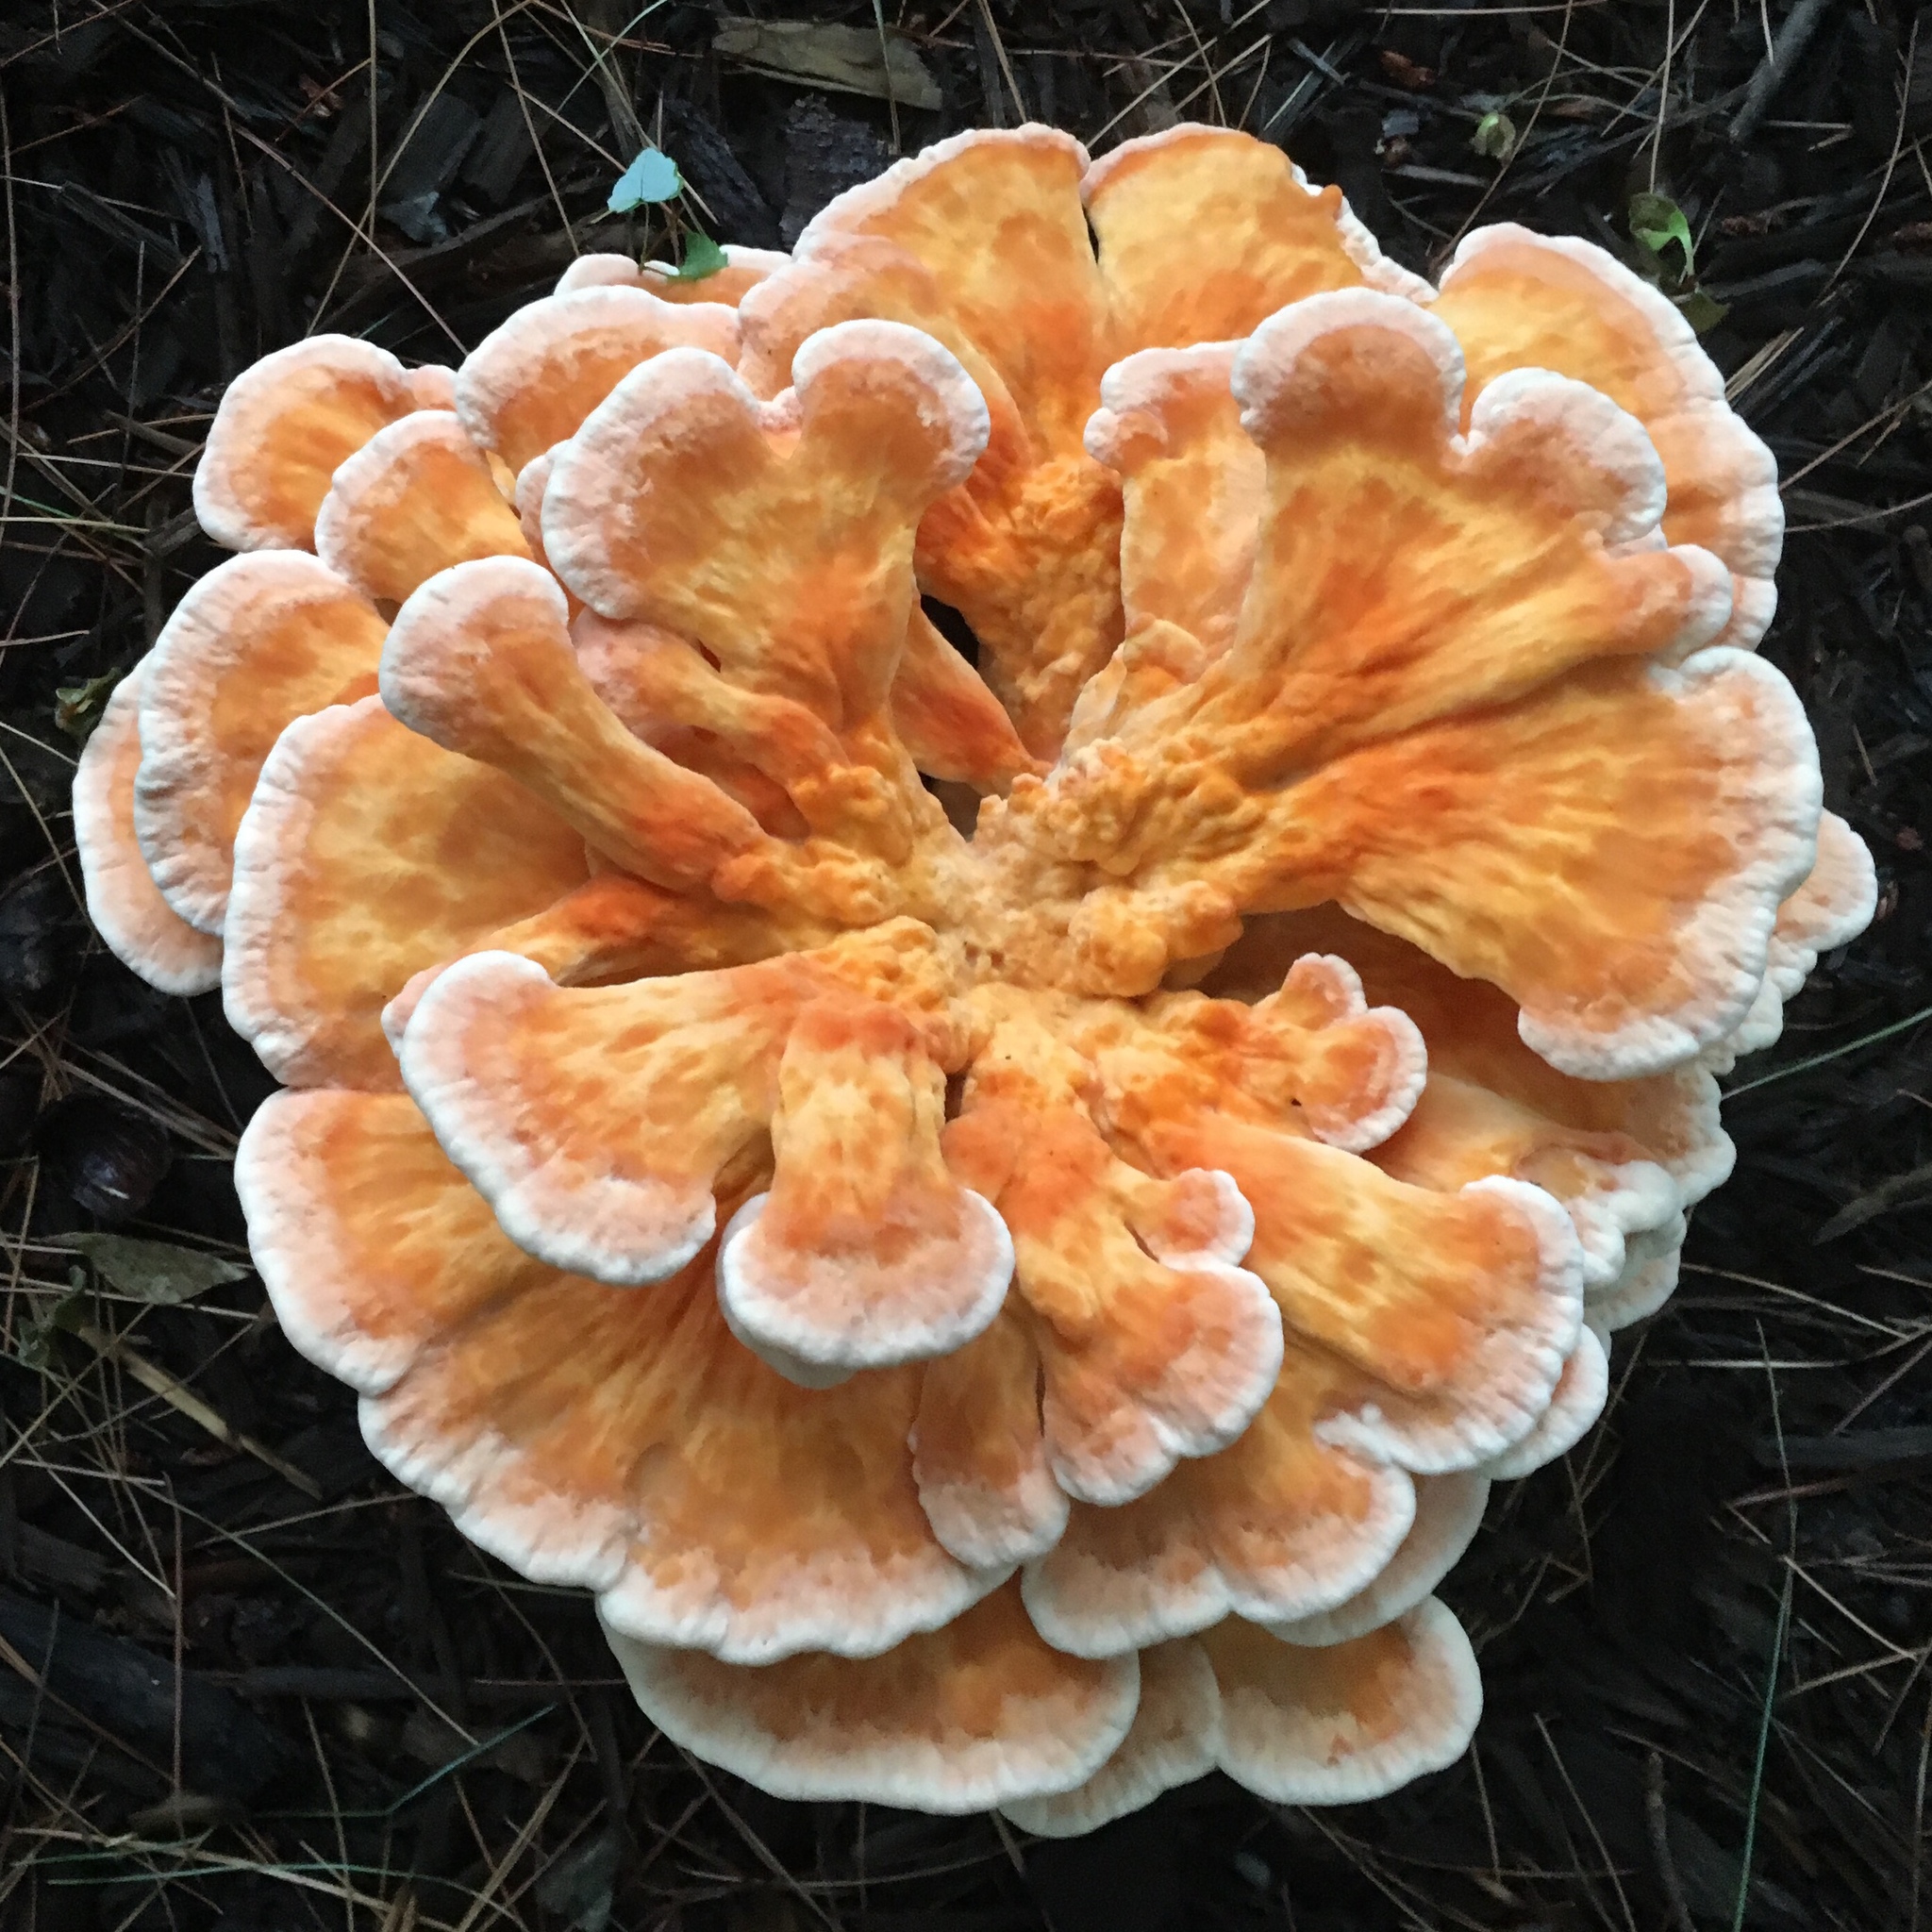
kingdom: Fungi
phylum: Basidiomycota
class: Agaricomycetes
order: Polyporales
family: Laetiporaceae
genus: Laetiporus
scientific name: Laetiporus sulphureus
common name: Chicken of the woods
